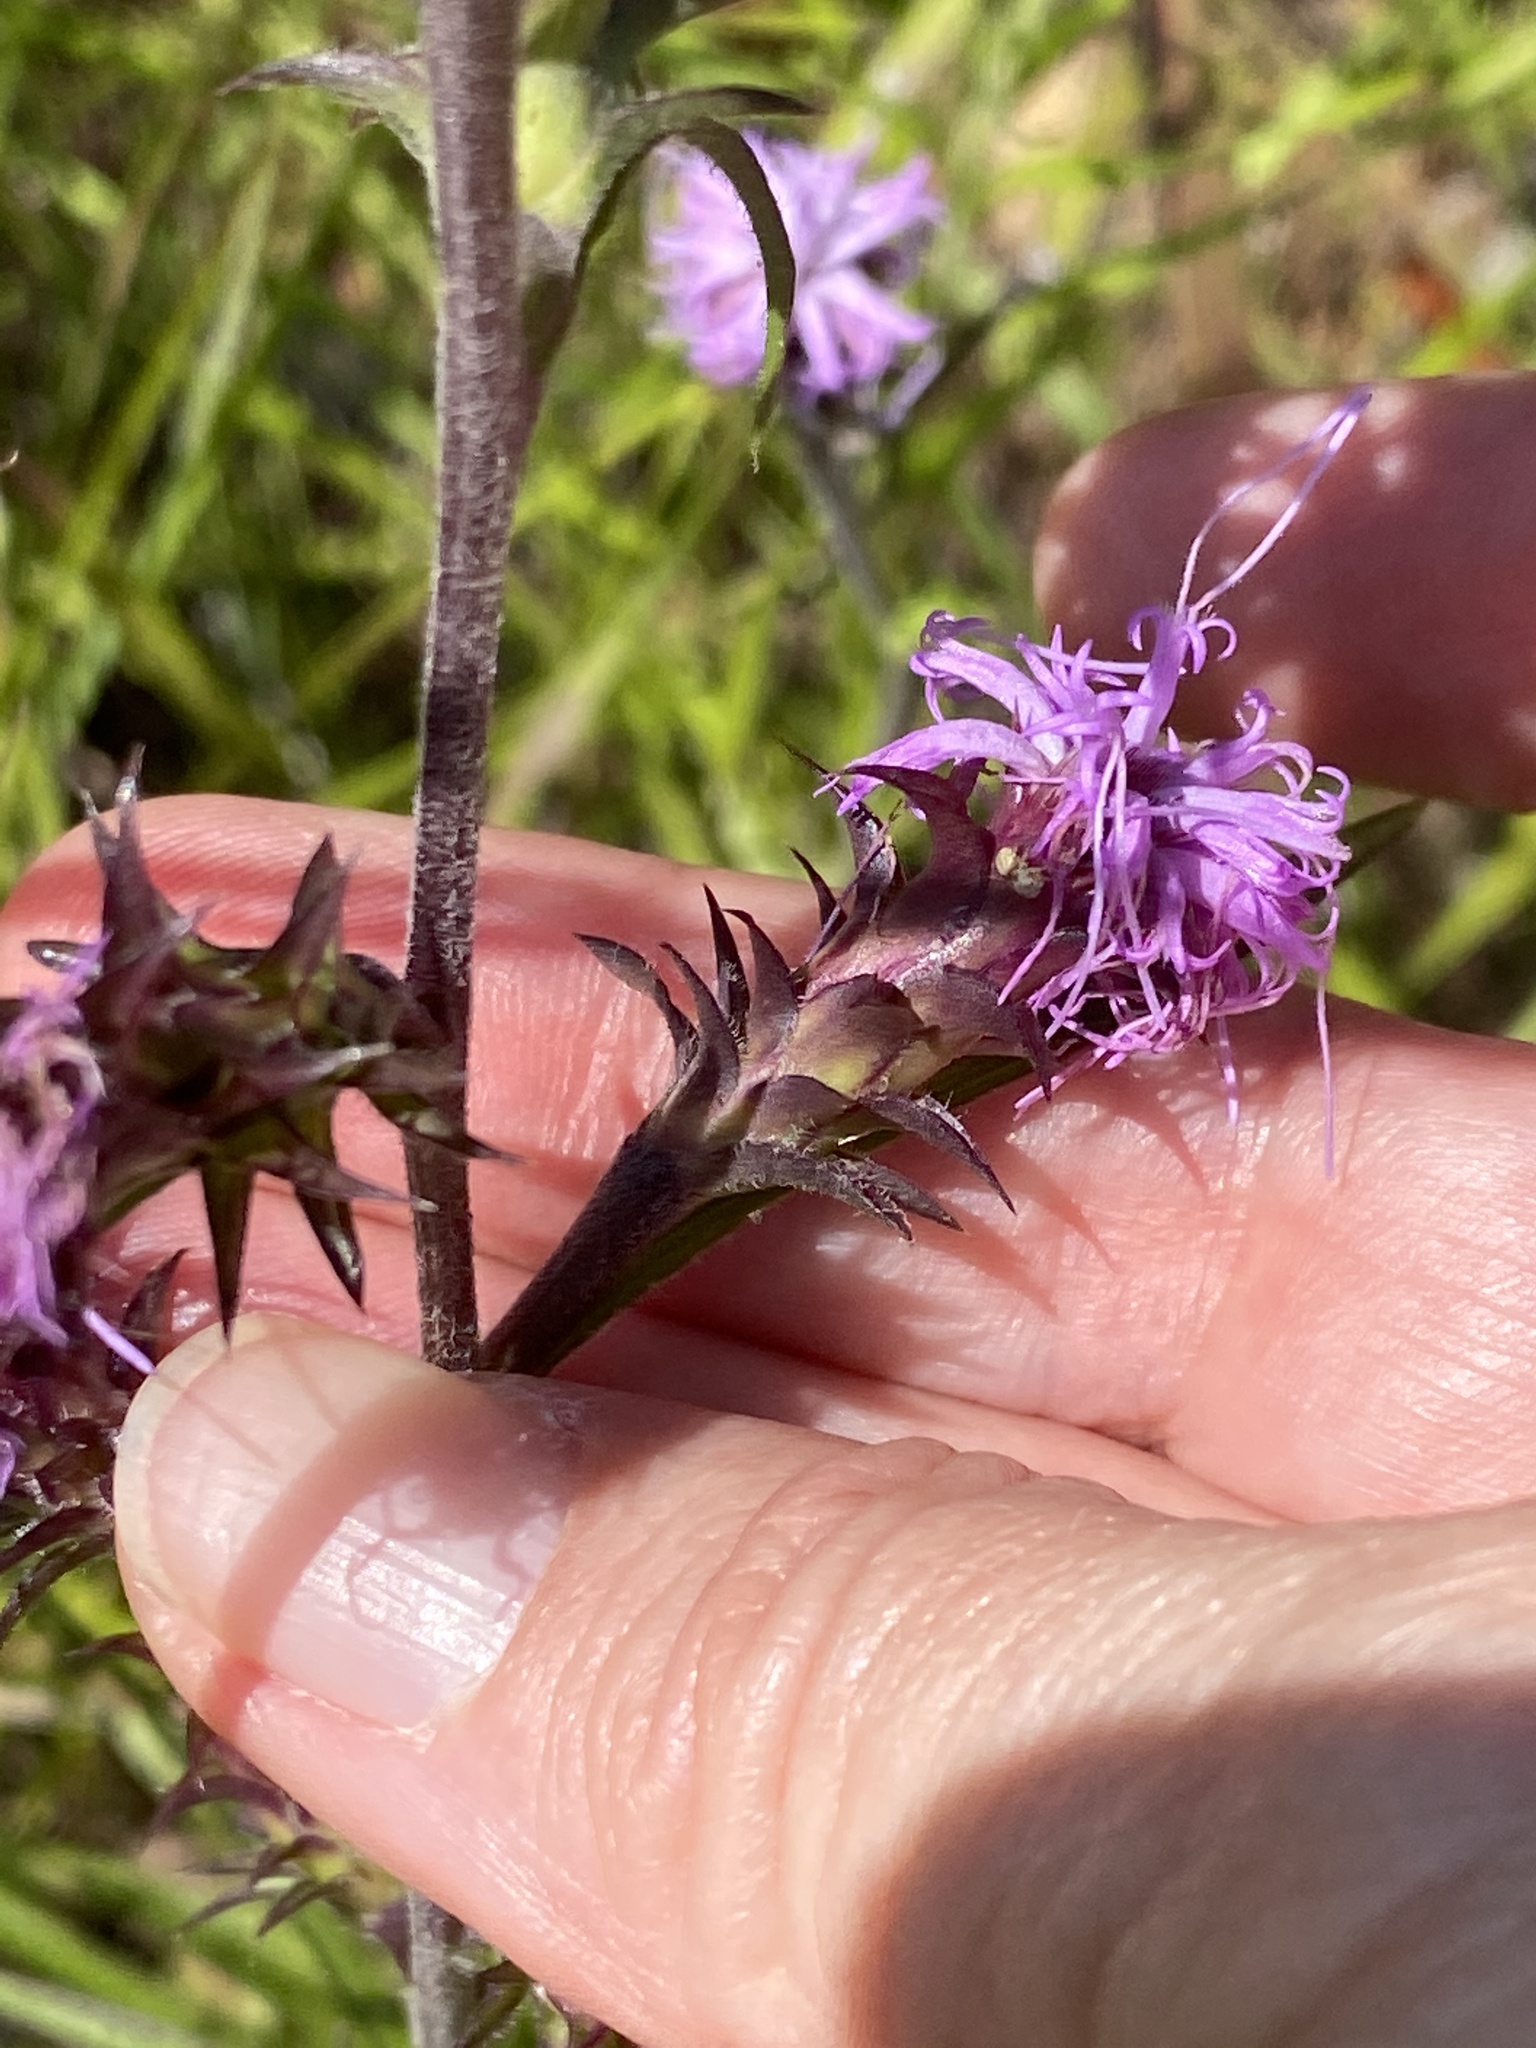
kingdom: Plantae
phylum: Tracheophyta
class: Magnoliopsida
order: Asterales
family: Asteraceae
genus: Liatris
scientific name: Liatris squarrosa
